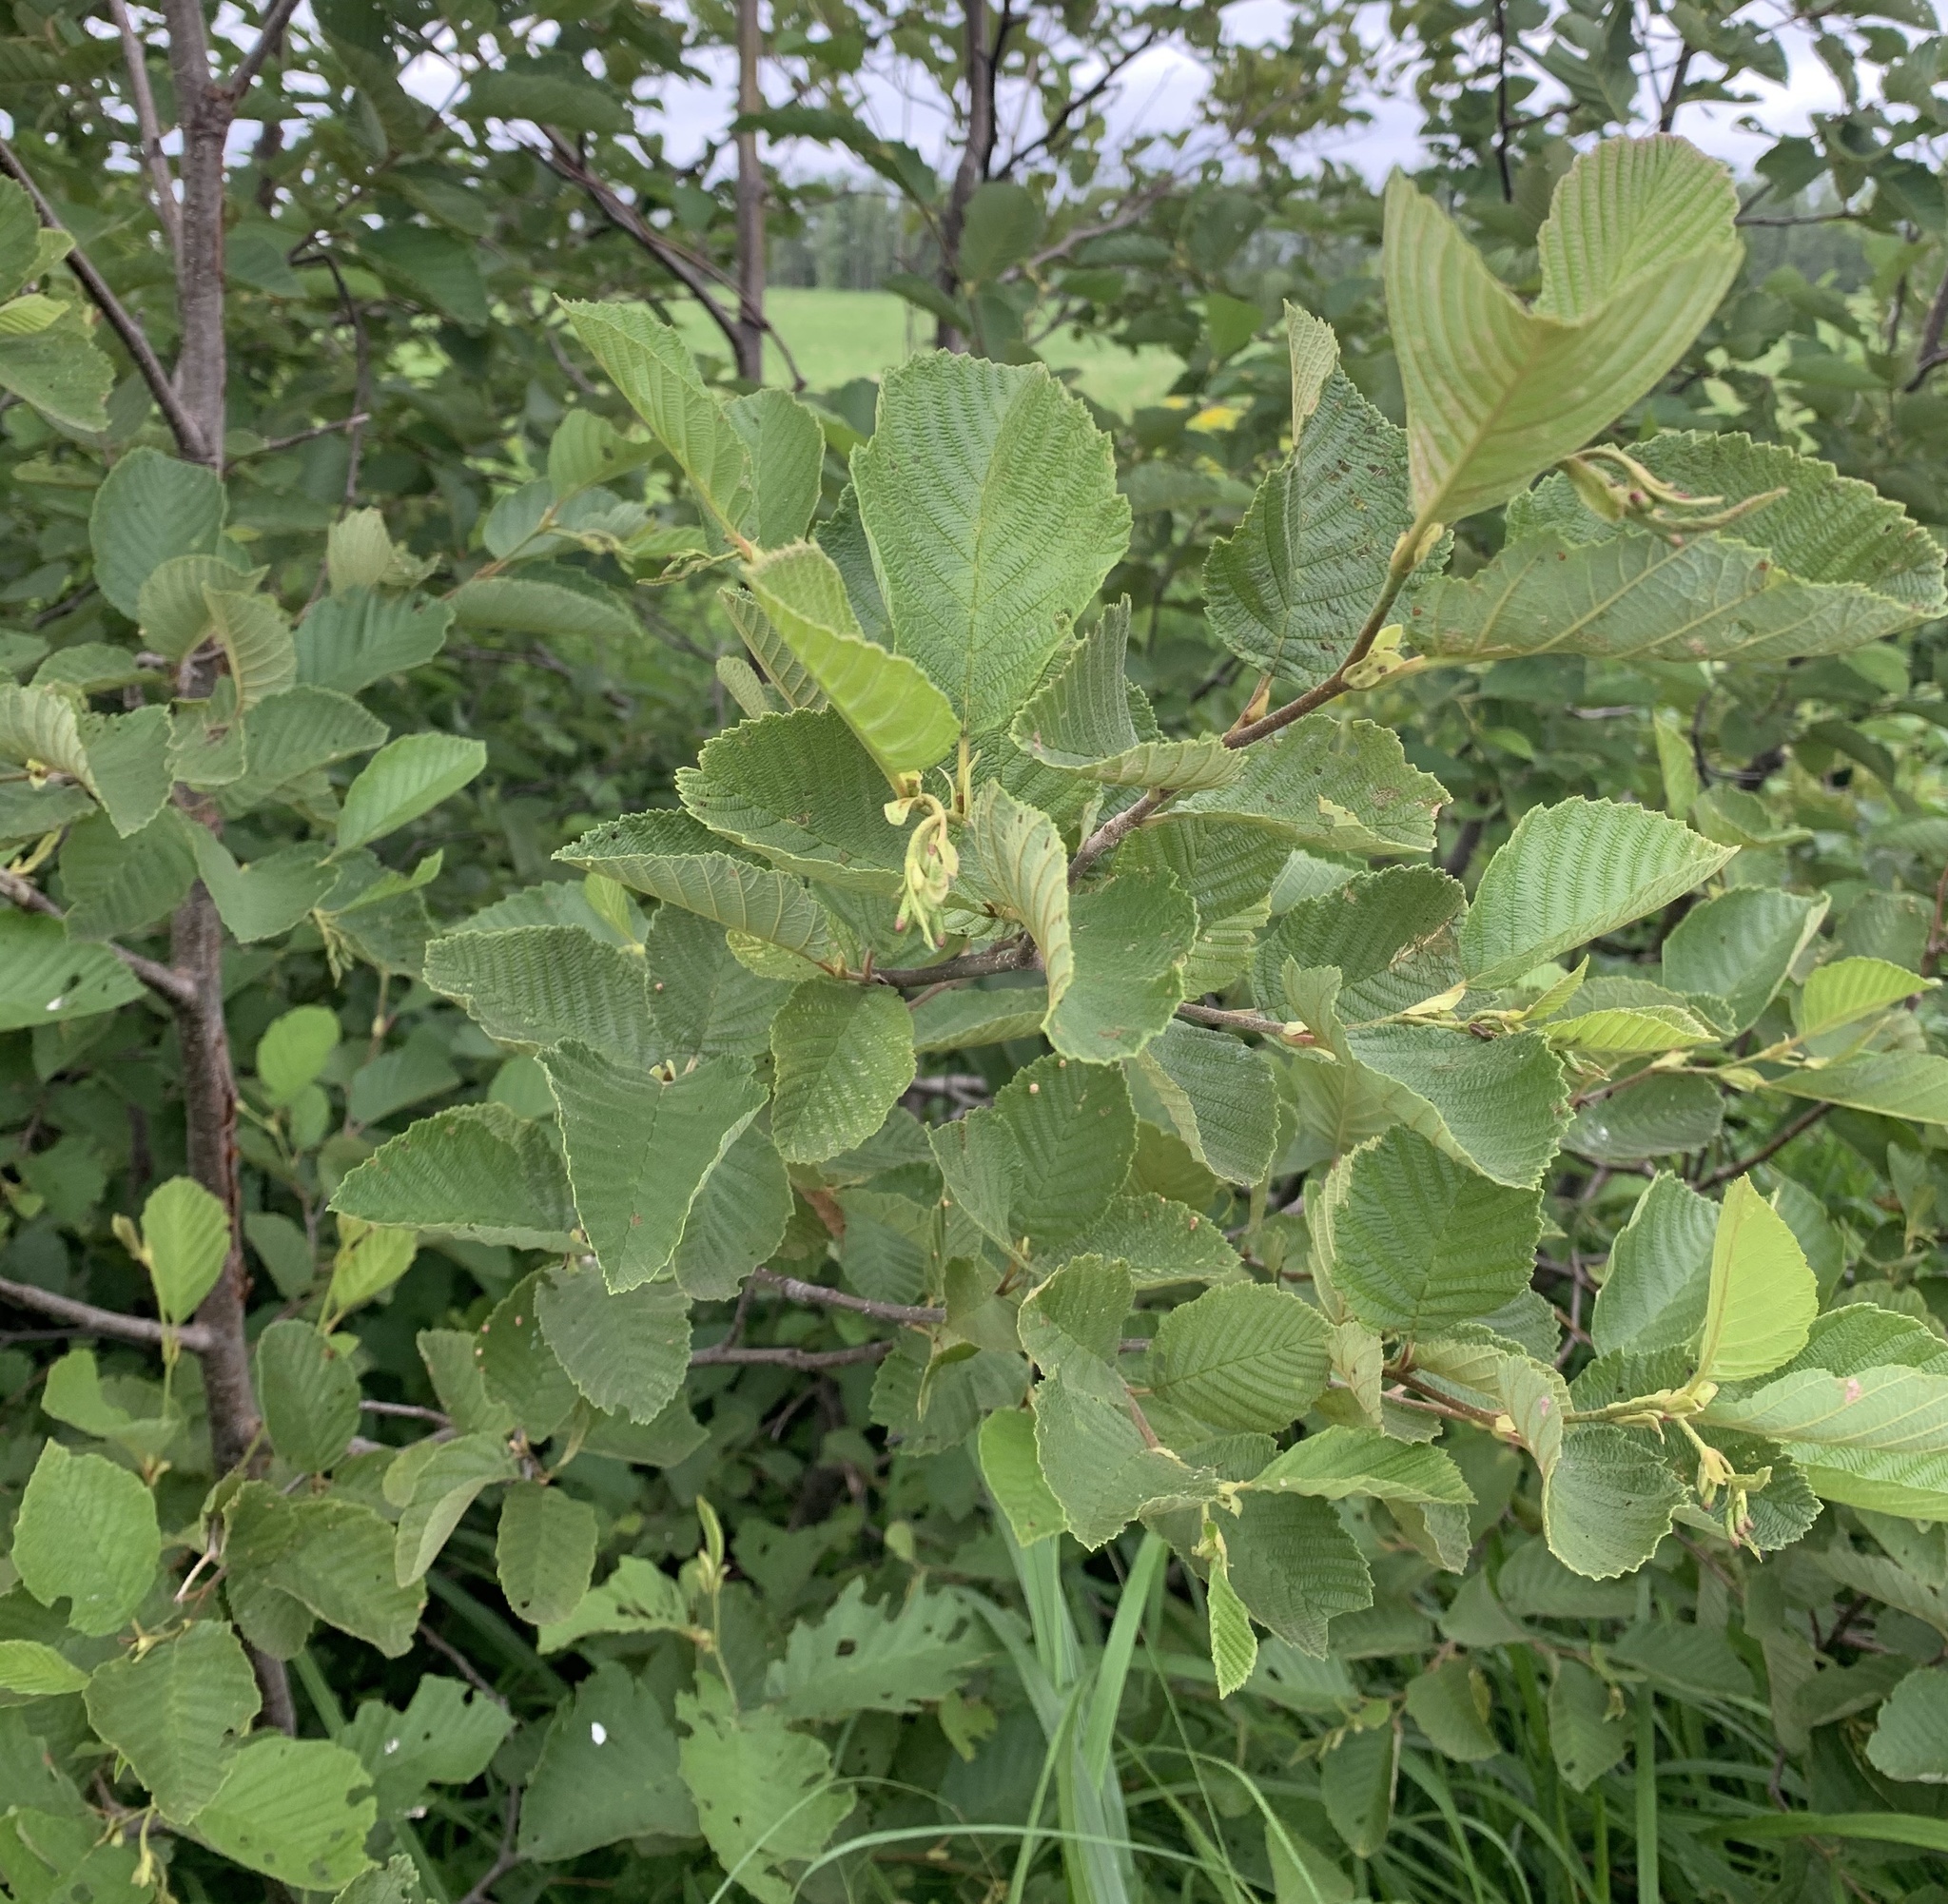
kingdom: Plantae
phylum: Tracheophyta
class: Magnoliopsida
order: Fagales
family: Betulaceae
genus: Alnus
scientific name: Alnus incana
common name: Grey alder
